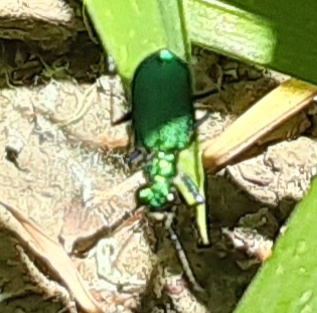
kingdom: Animalia
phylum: Arthropoda
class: Insecta
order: Coleoptera
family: Carabidae
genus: Cicindela
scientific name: Cicindela sexguttata
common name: Six-spotted tiger beetle
